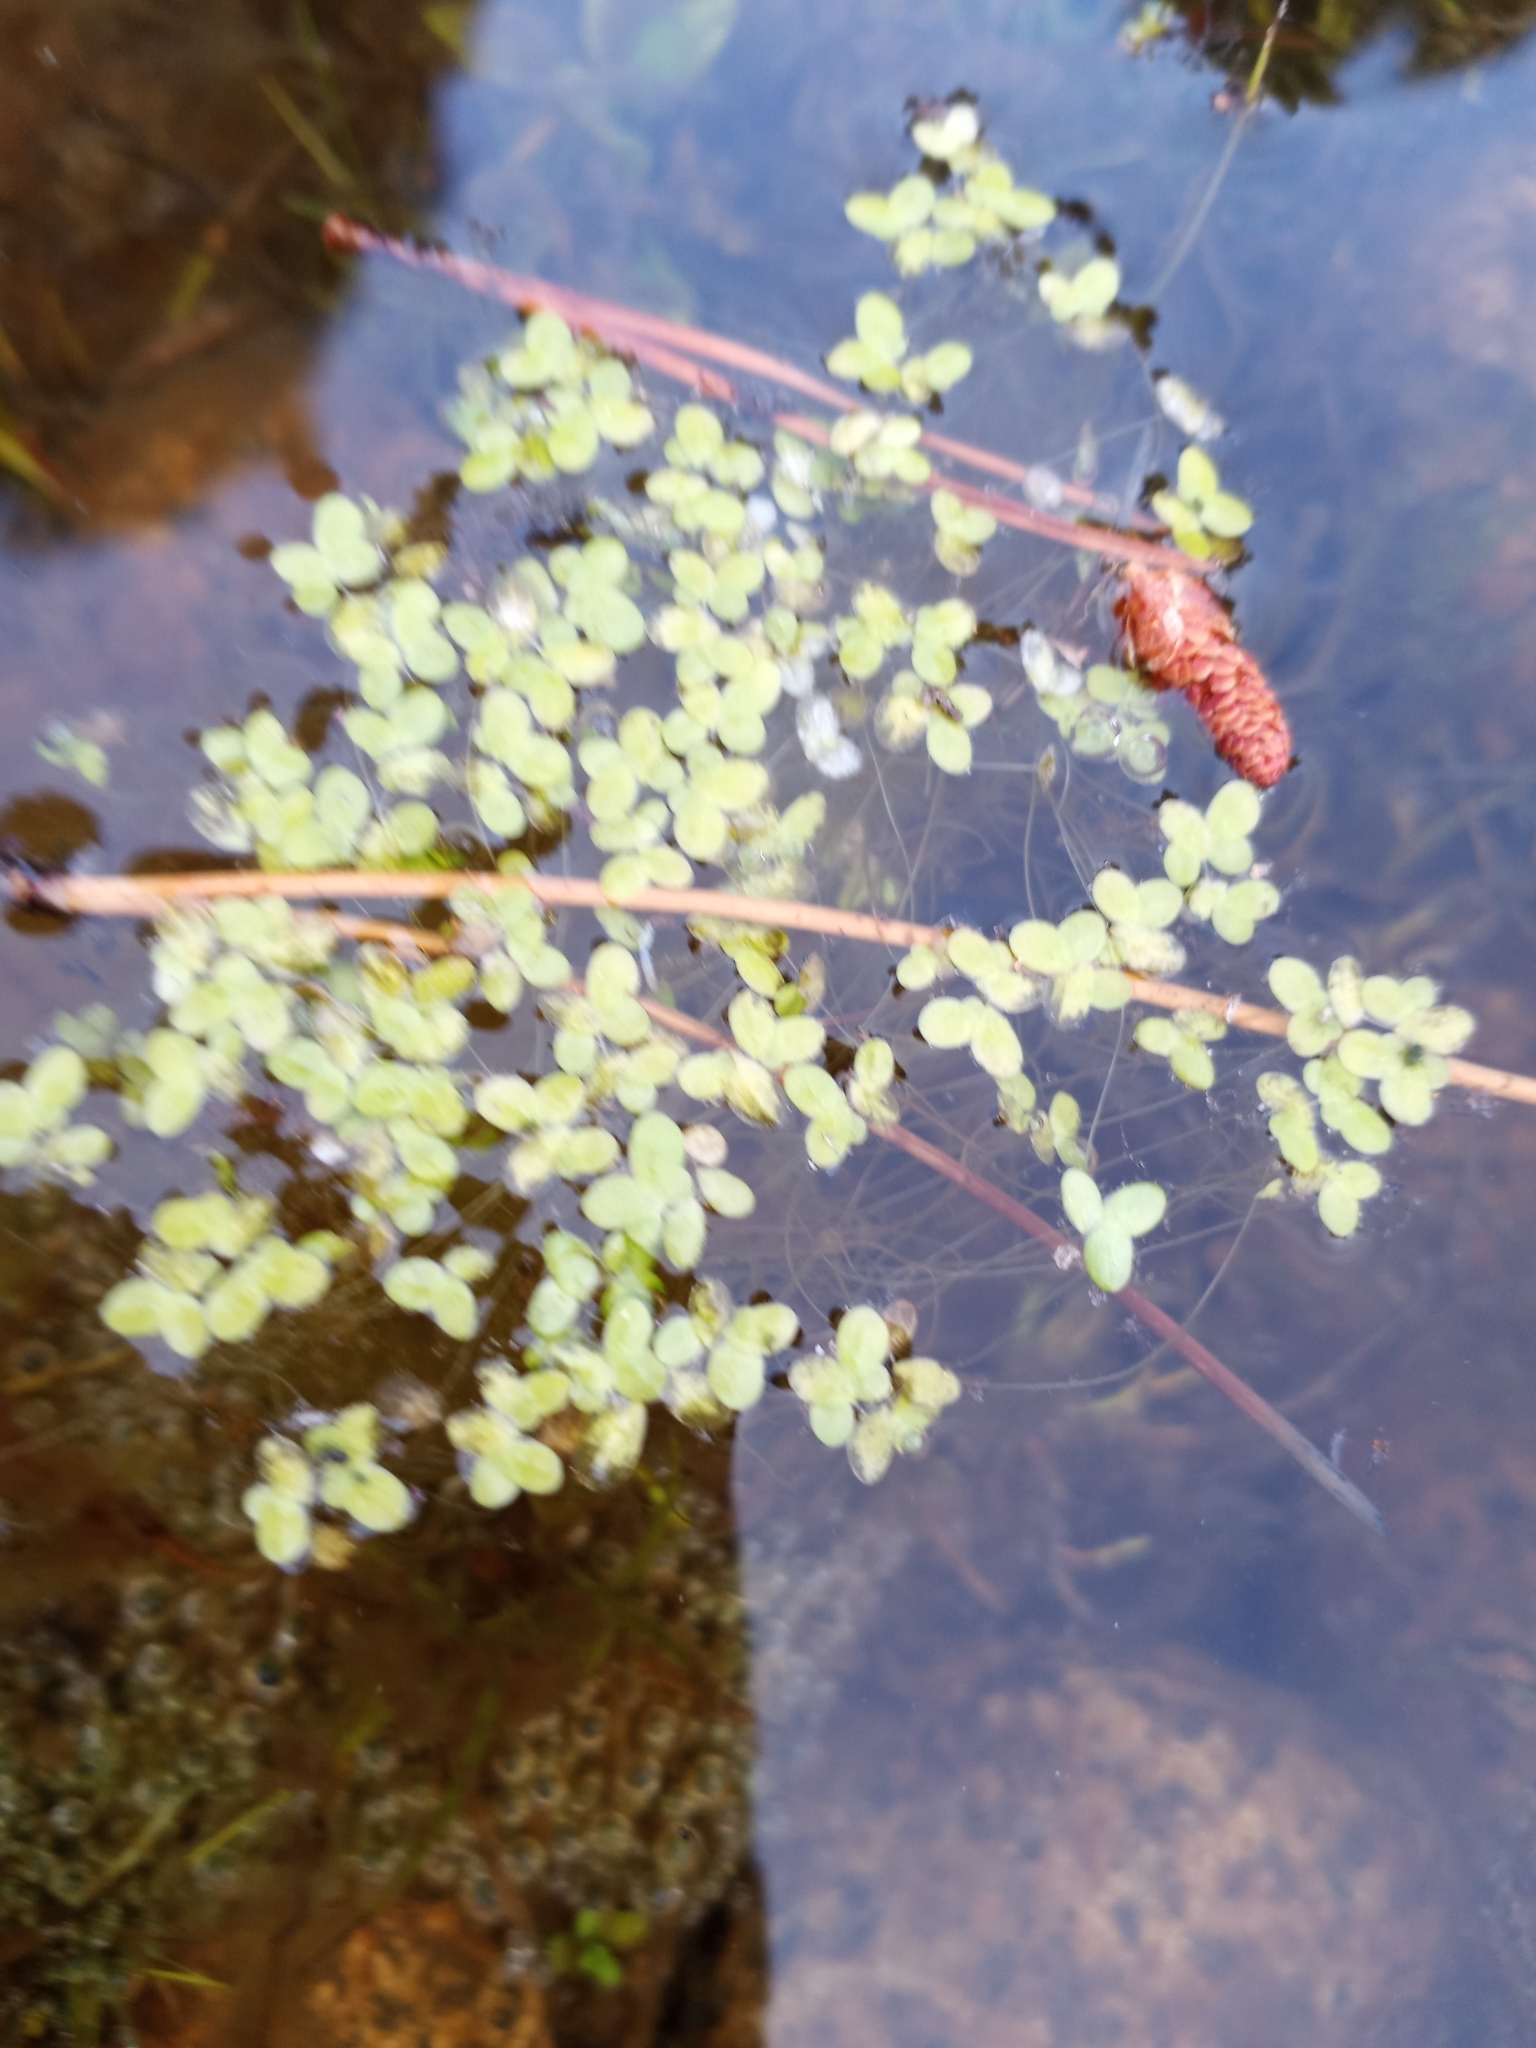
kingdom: Plantae
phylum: Tracheophyta
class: Liliopsida
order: Alismatales
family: Araceae
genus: Lemna
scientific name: Lemna minor
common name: Common duckweed
